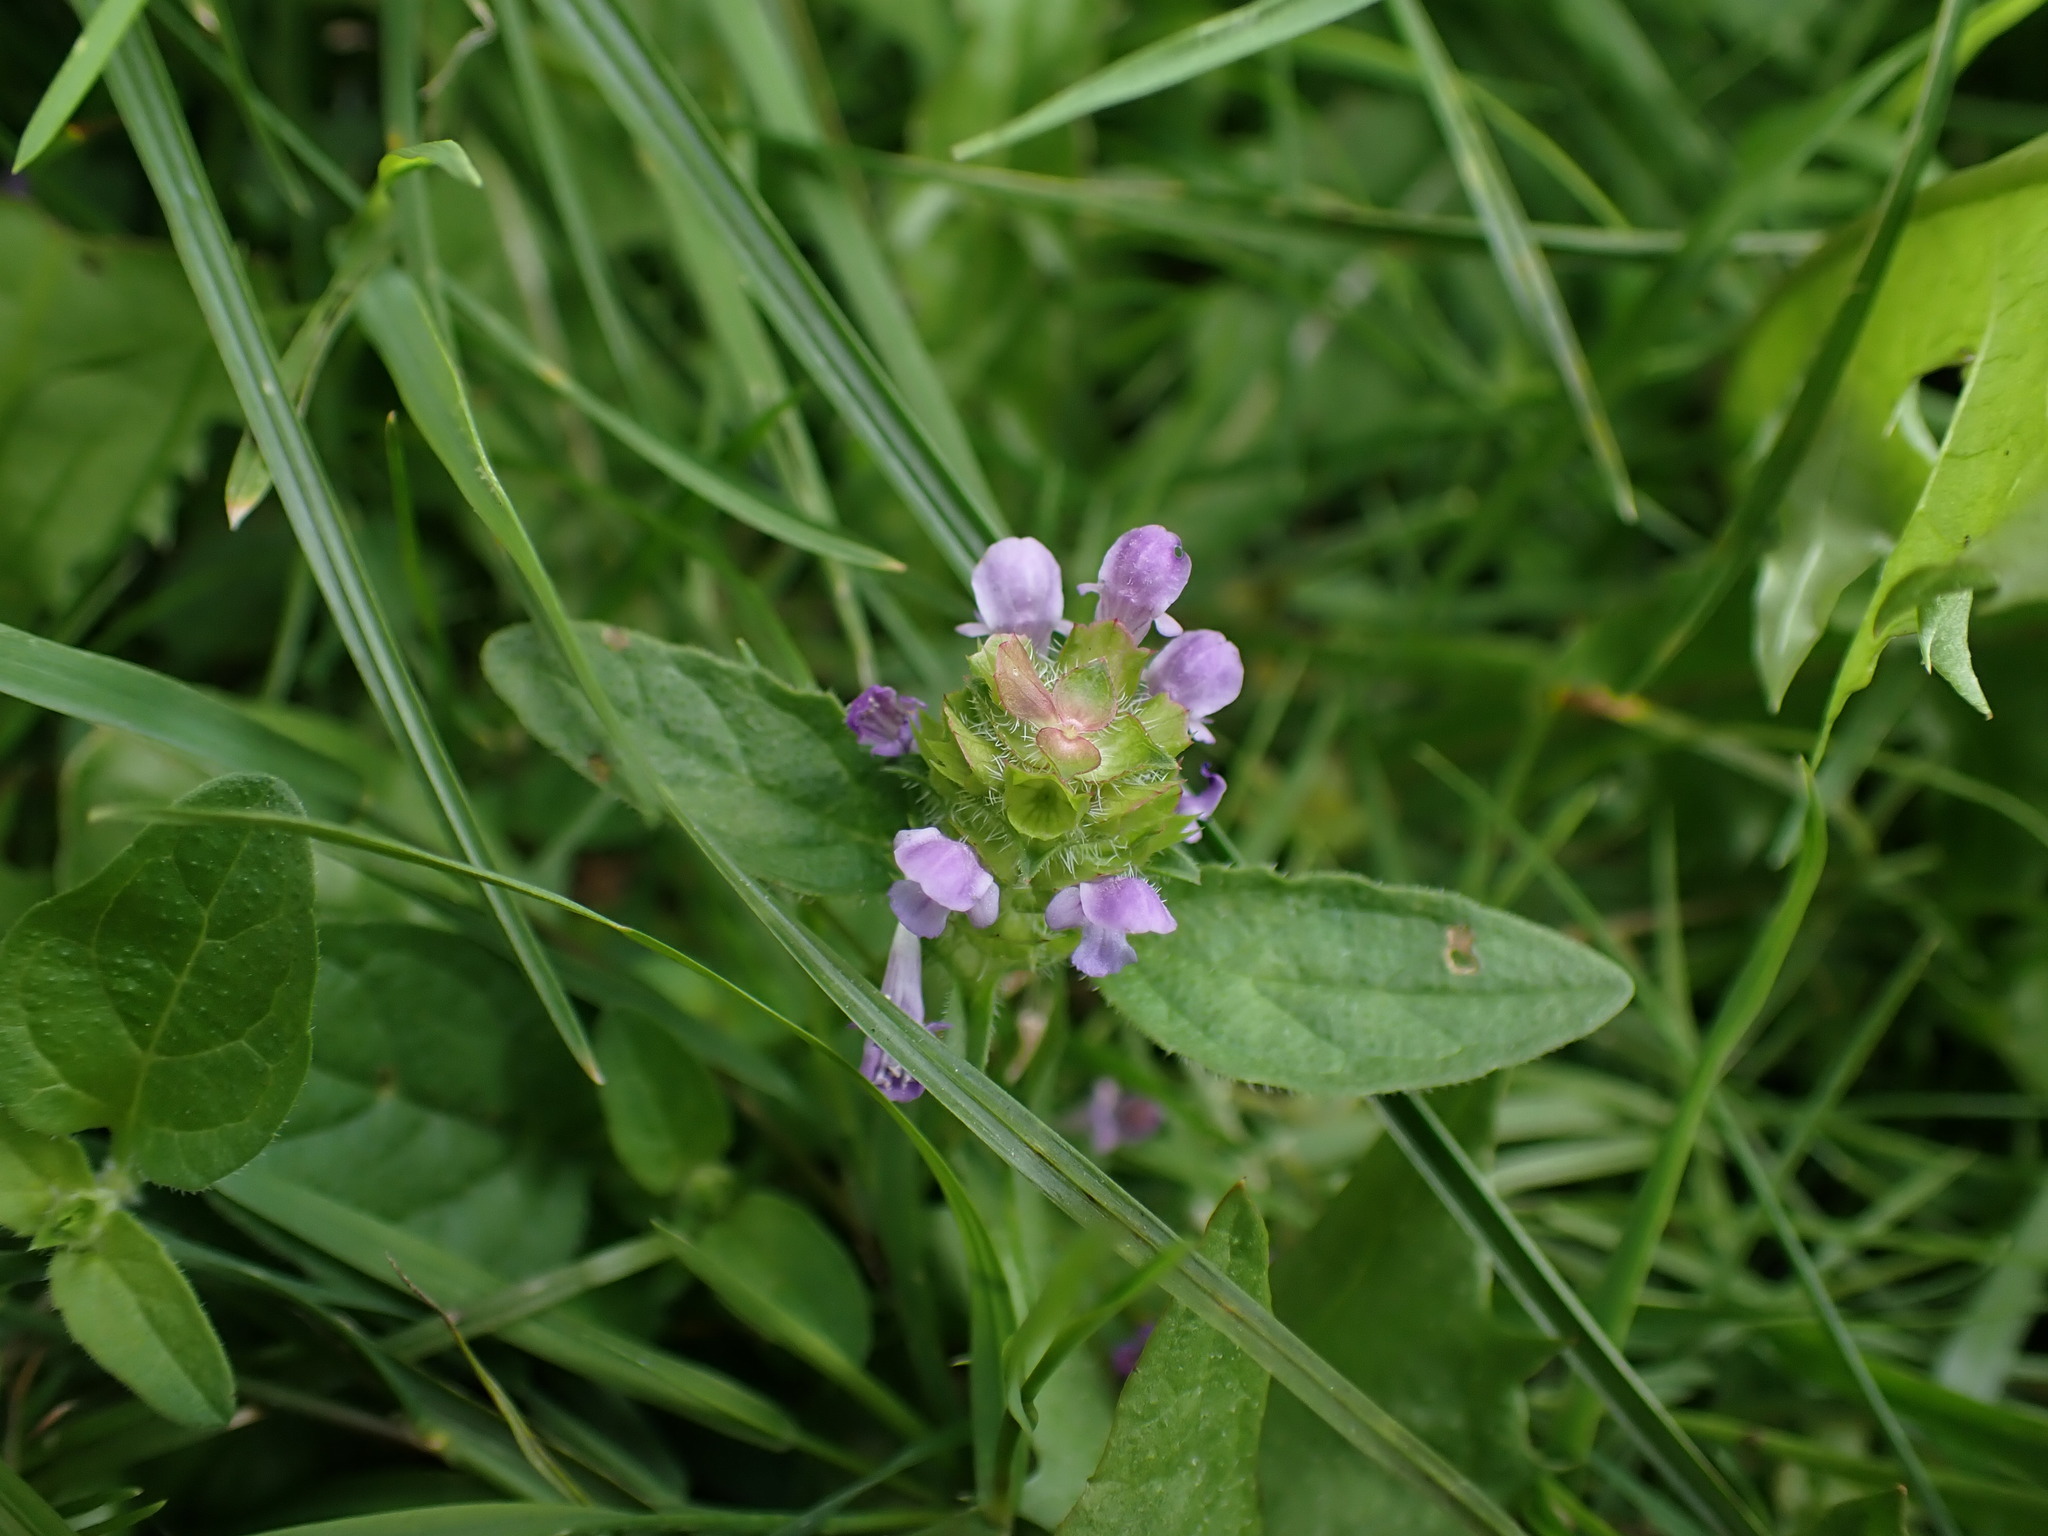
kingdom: Plantae
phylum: Tracheophyta
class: Magnoliopsida
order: Lamiales
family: Lamiaceae
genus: Prunella
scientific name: Prunella vulgaris
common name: Heal-all
